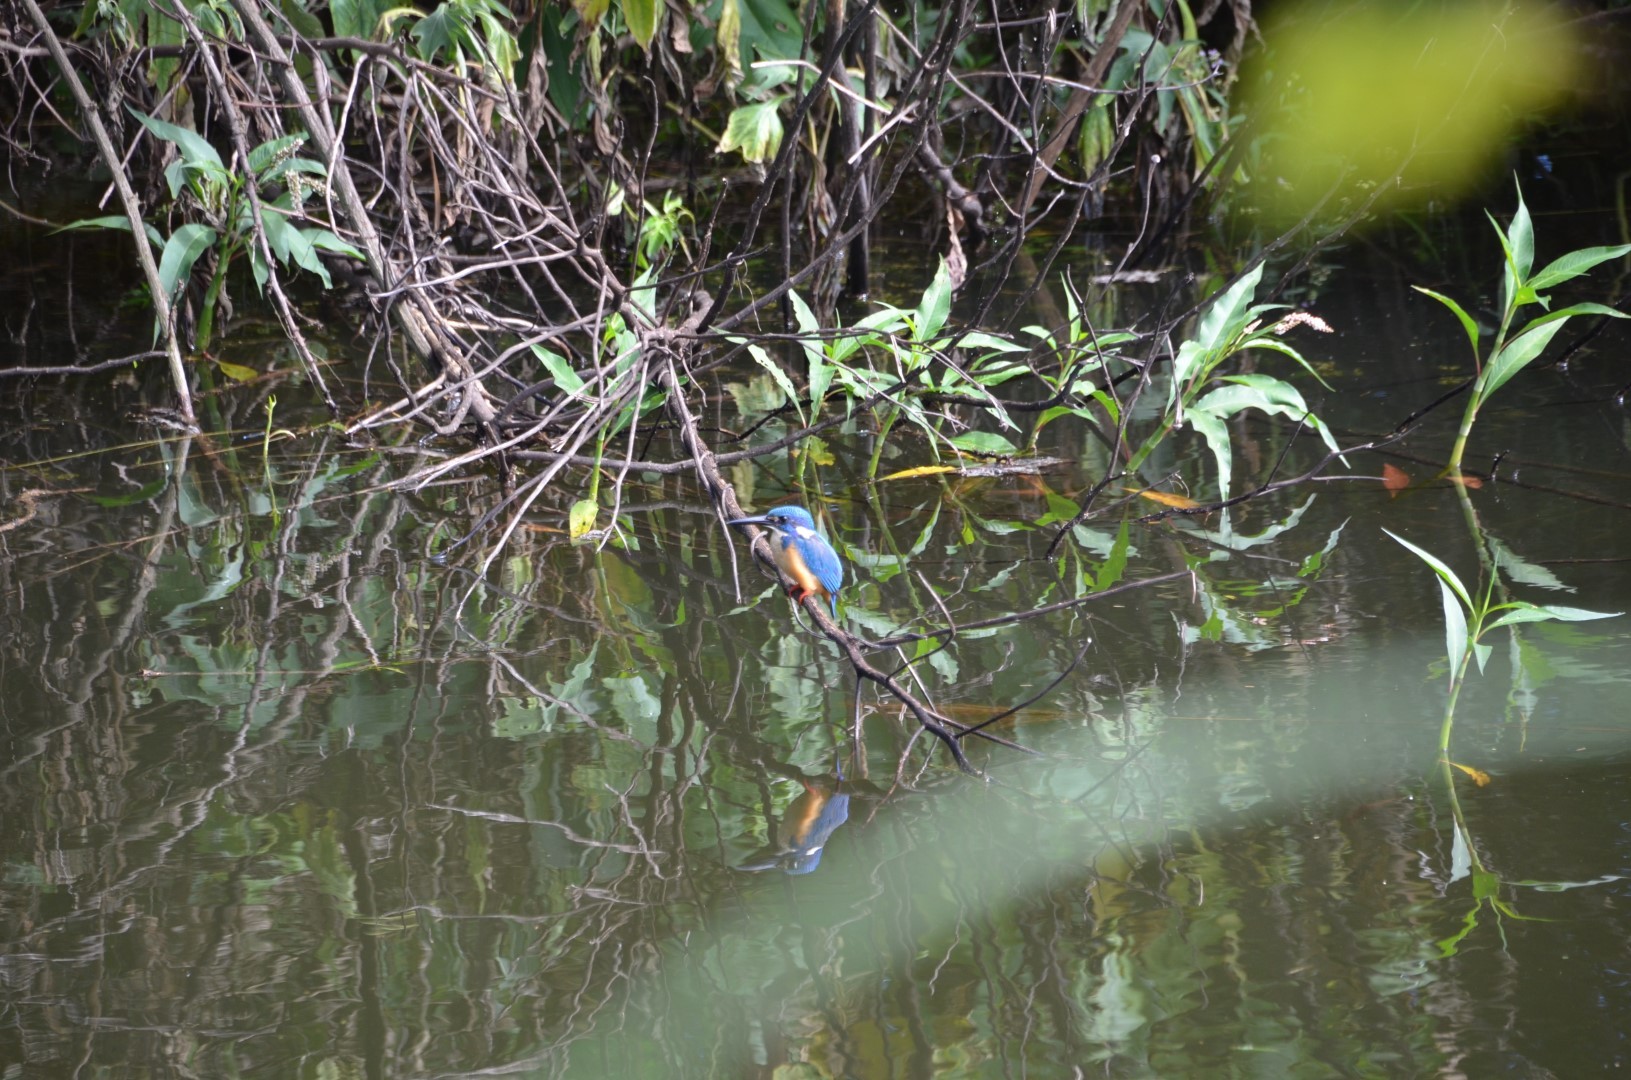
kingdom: Animalia
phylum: Chordata
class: Aves
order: Coraciiformes
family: Alcedinidae
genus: Alcedo
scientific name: Alcedo semitorquata
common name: Half-collared kingfisher
